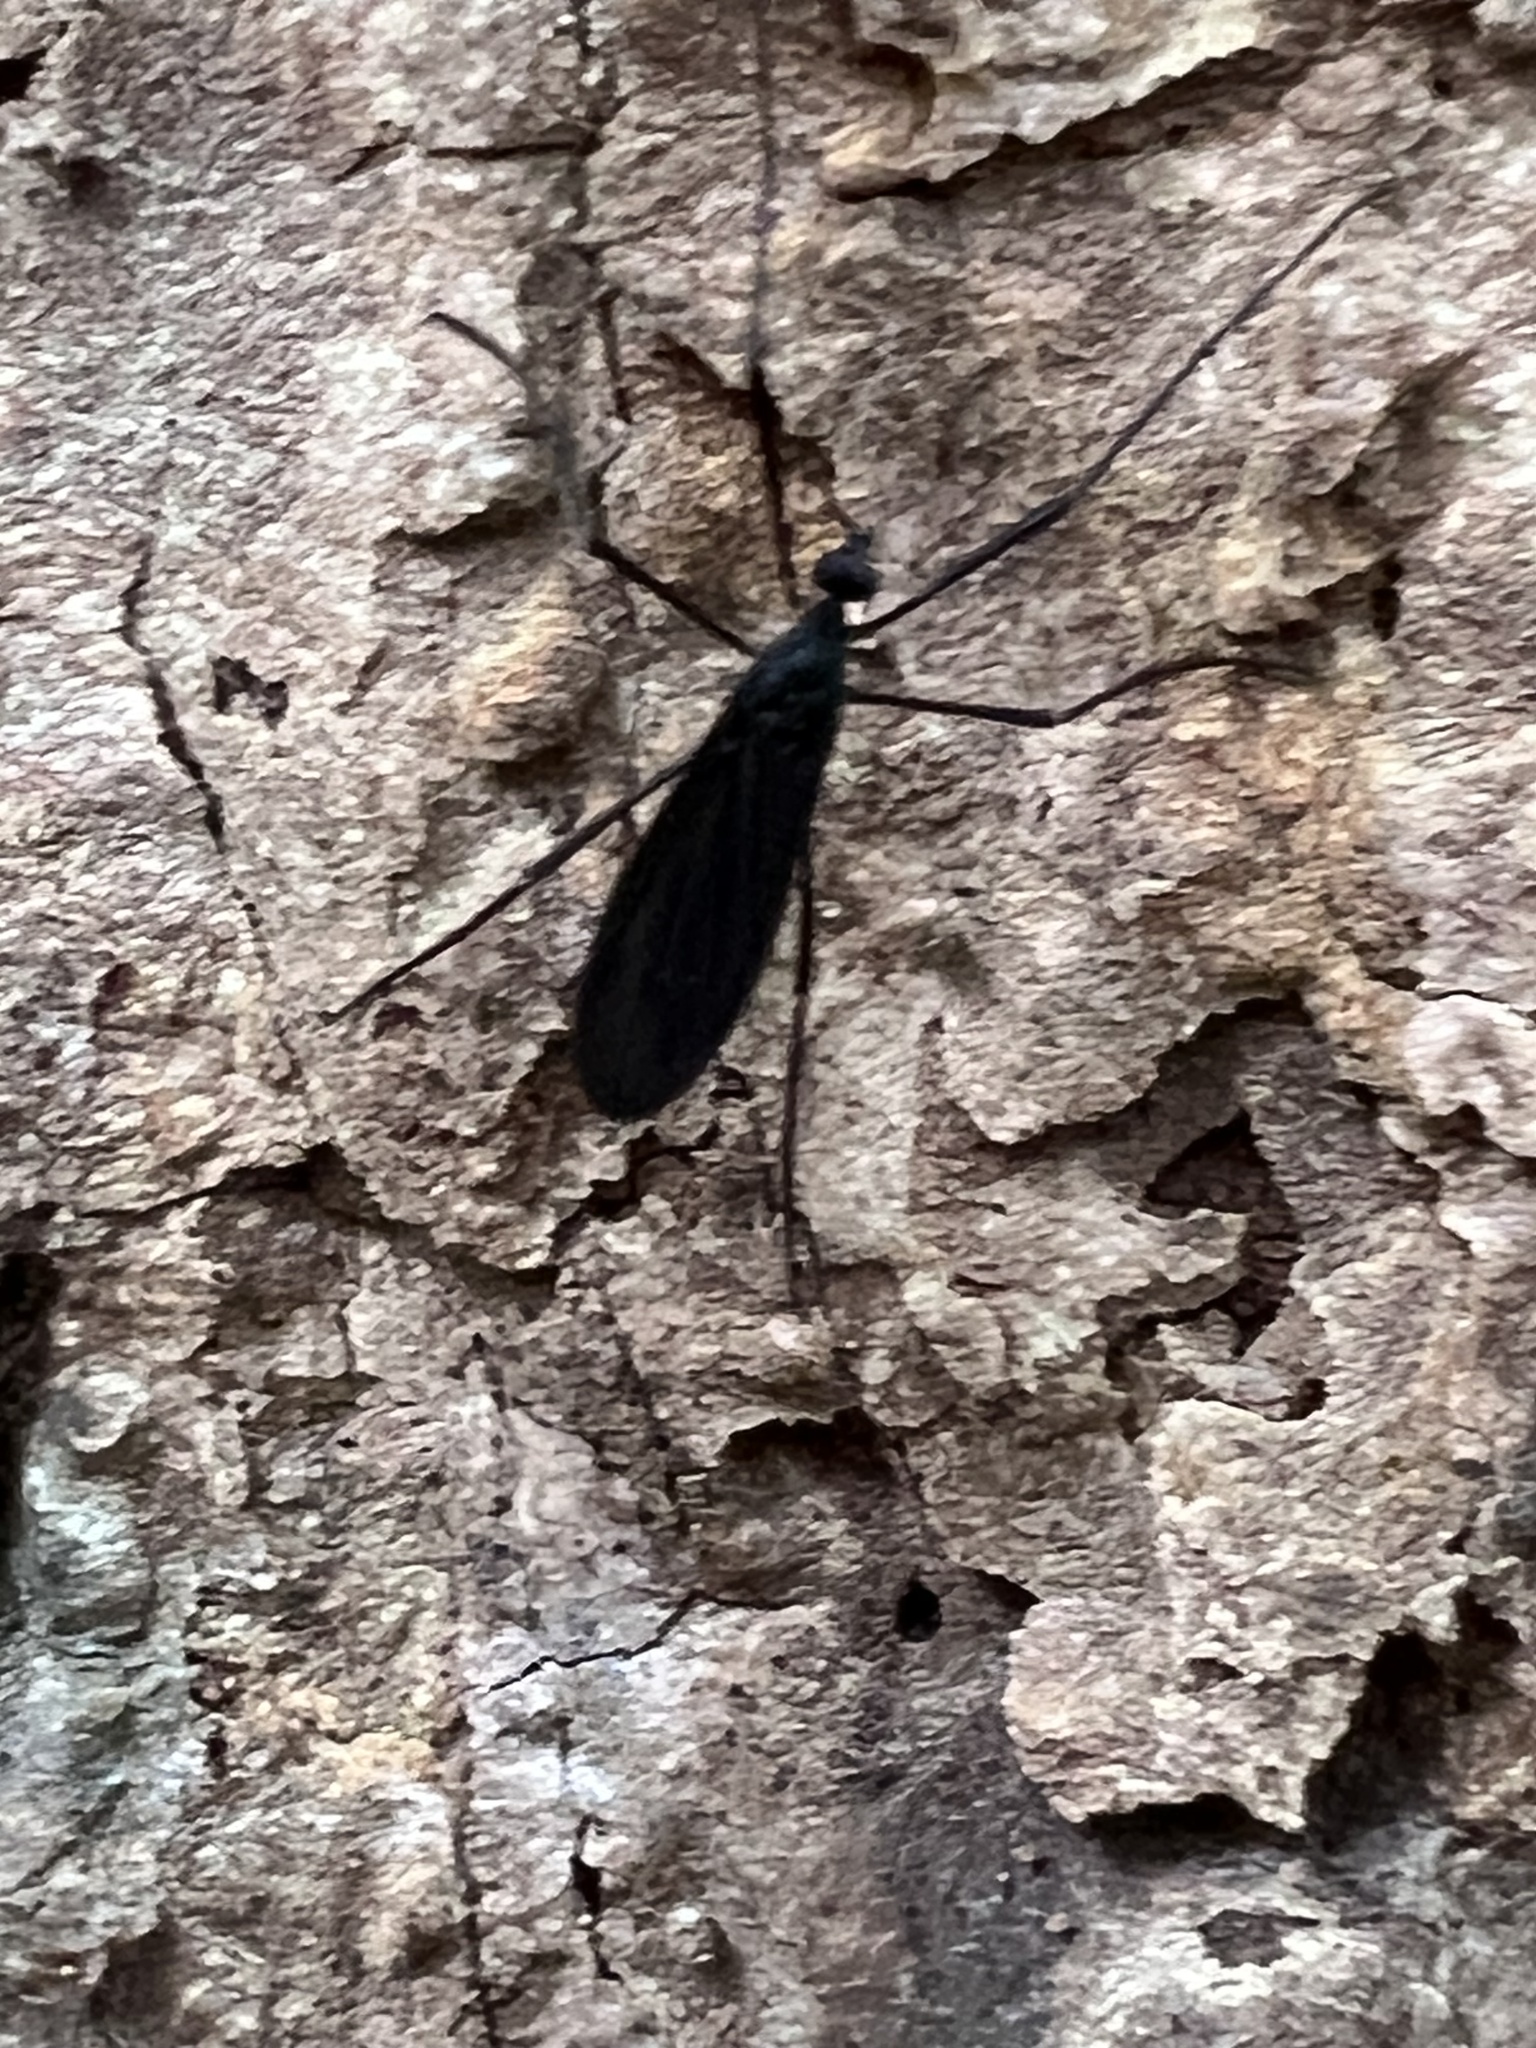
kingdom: Animalia
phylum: Arthropoda
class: Insecta
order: Diptera
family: Limoniidae
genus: Eugnophomyia
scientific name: Eugnophomyia luctuosa
